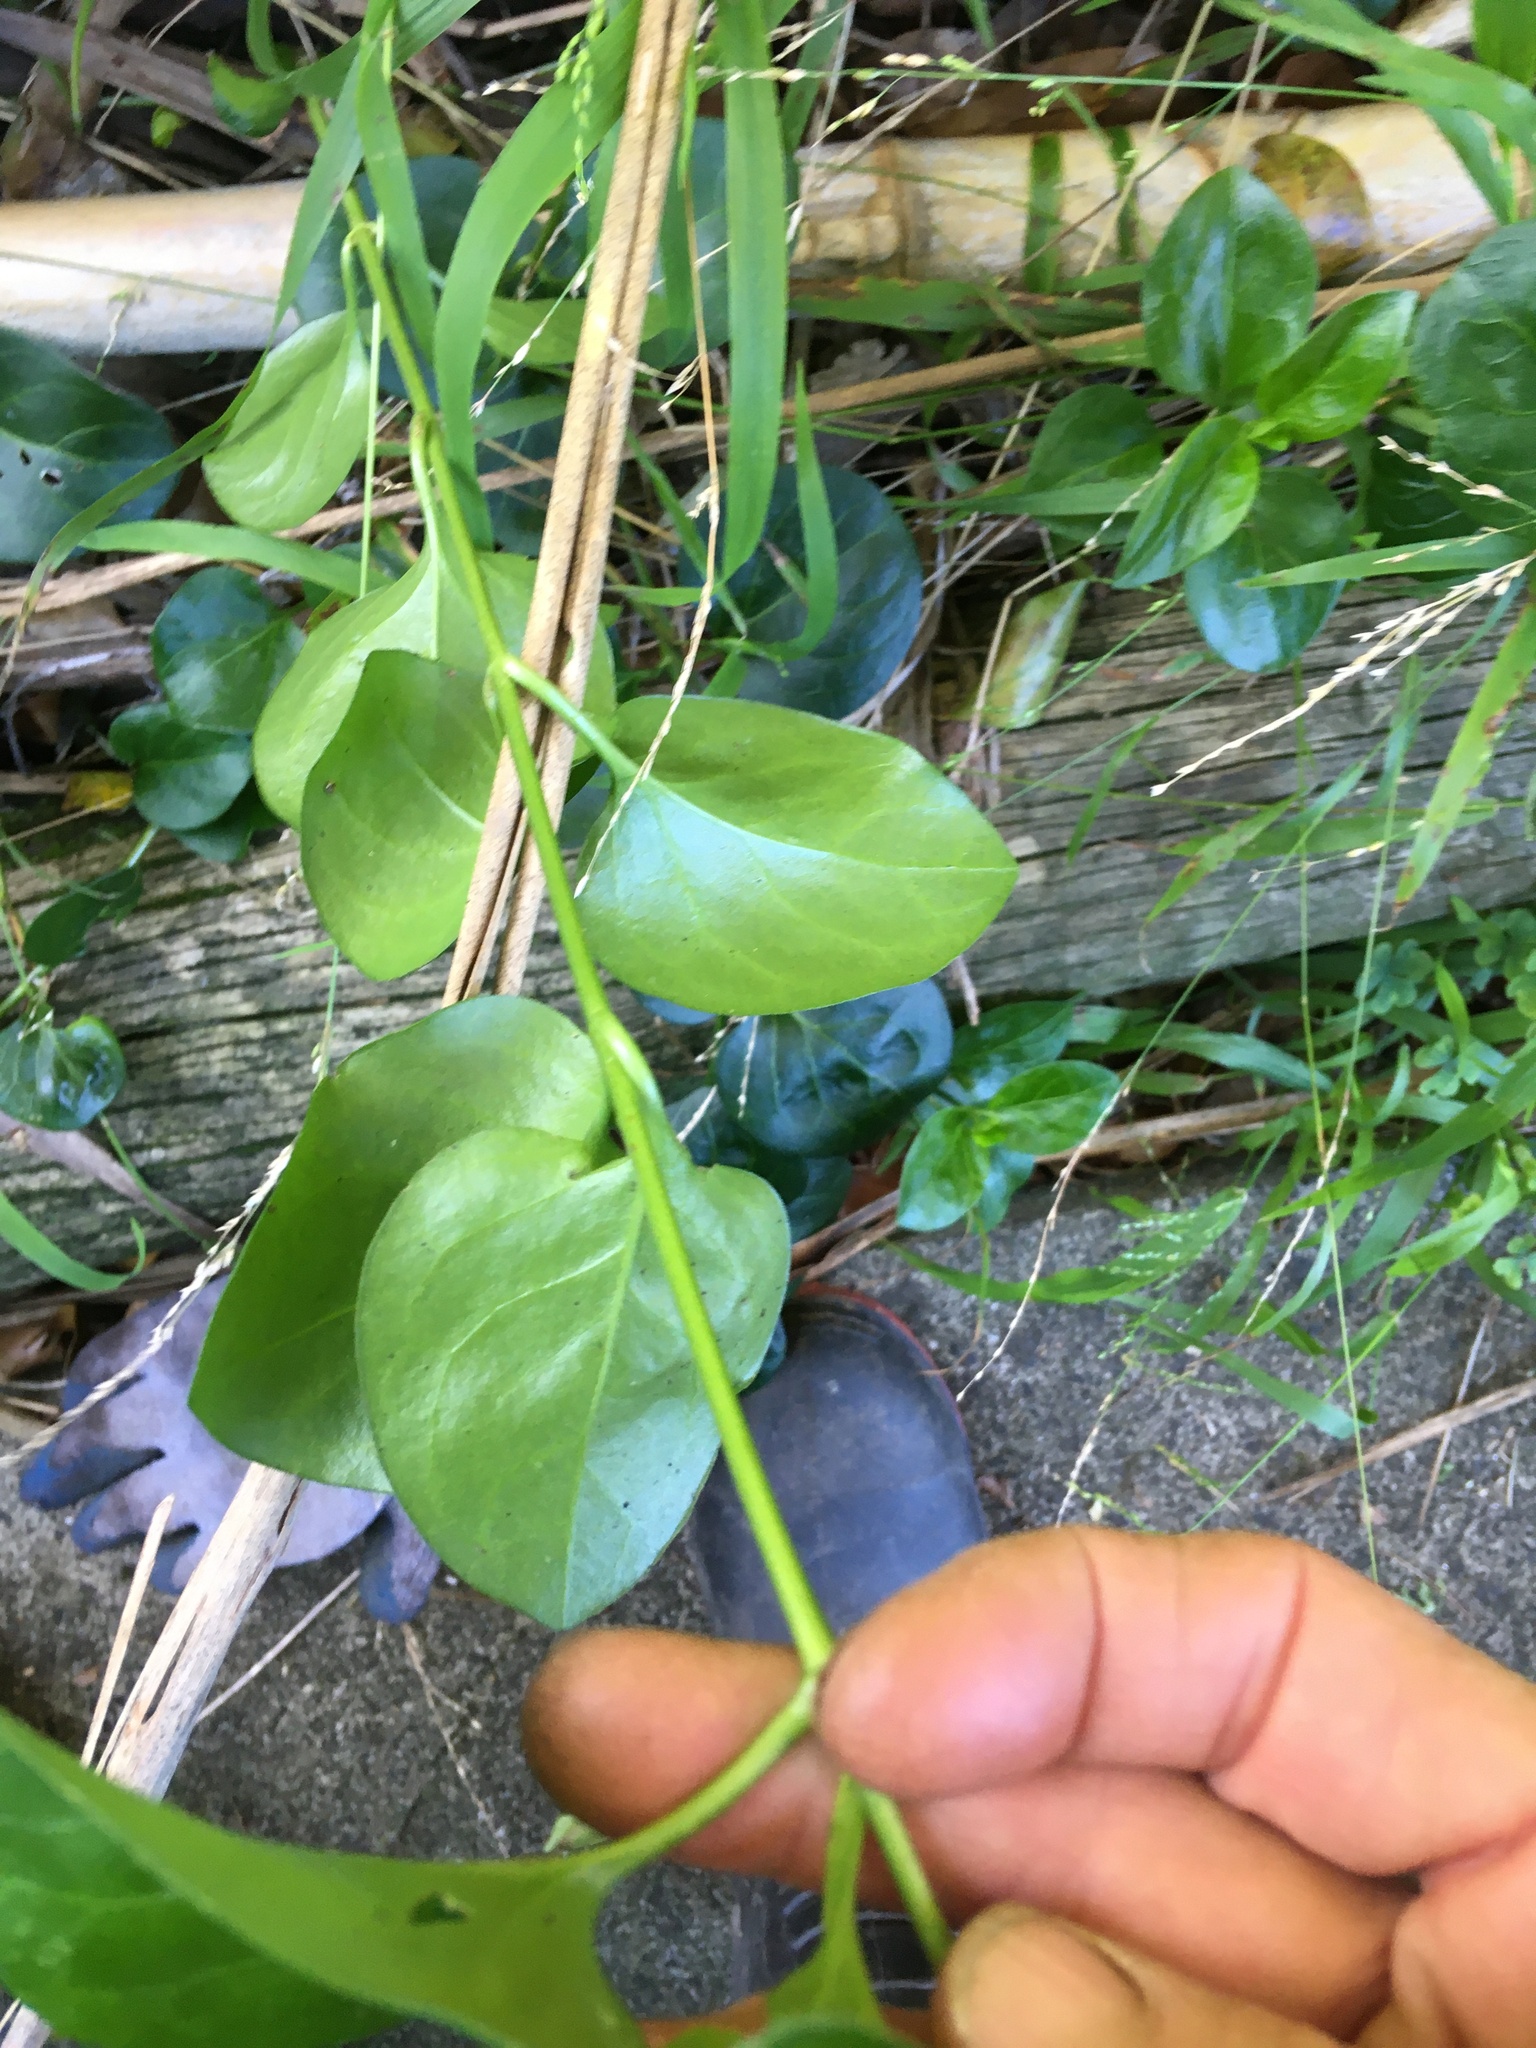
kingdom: Plantae
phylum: Tracheophyta
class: Magnoliopsida
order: Gentianales
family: Apocynaceae
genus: Vinca
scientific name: Vinca major
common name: Greater periwinkle
